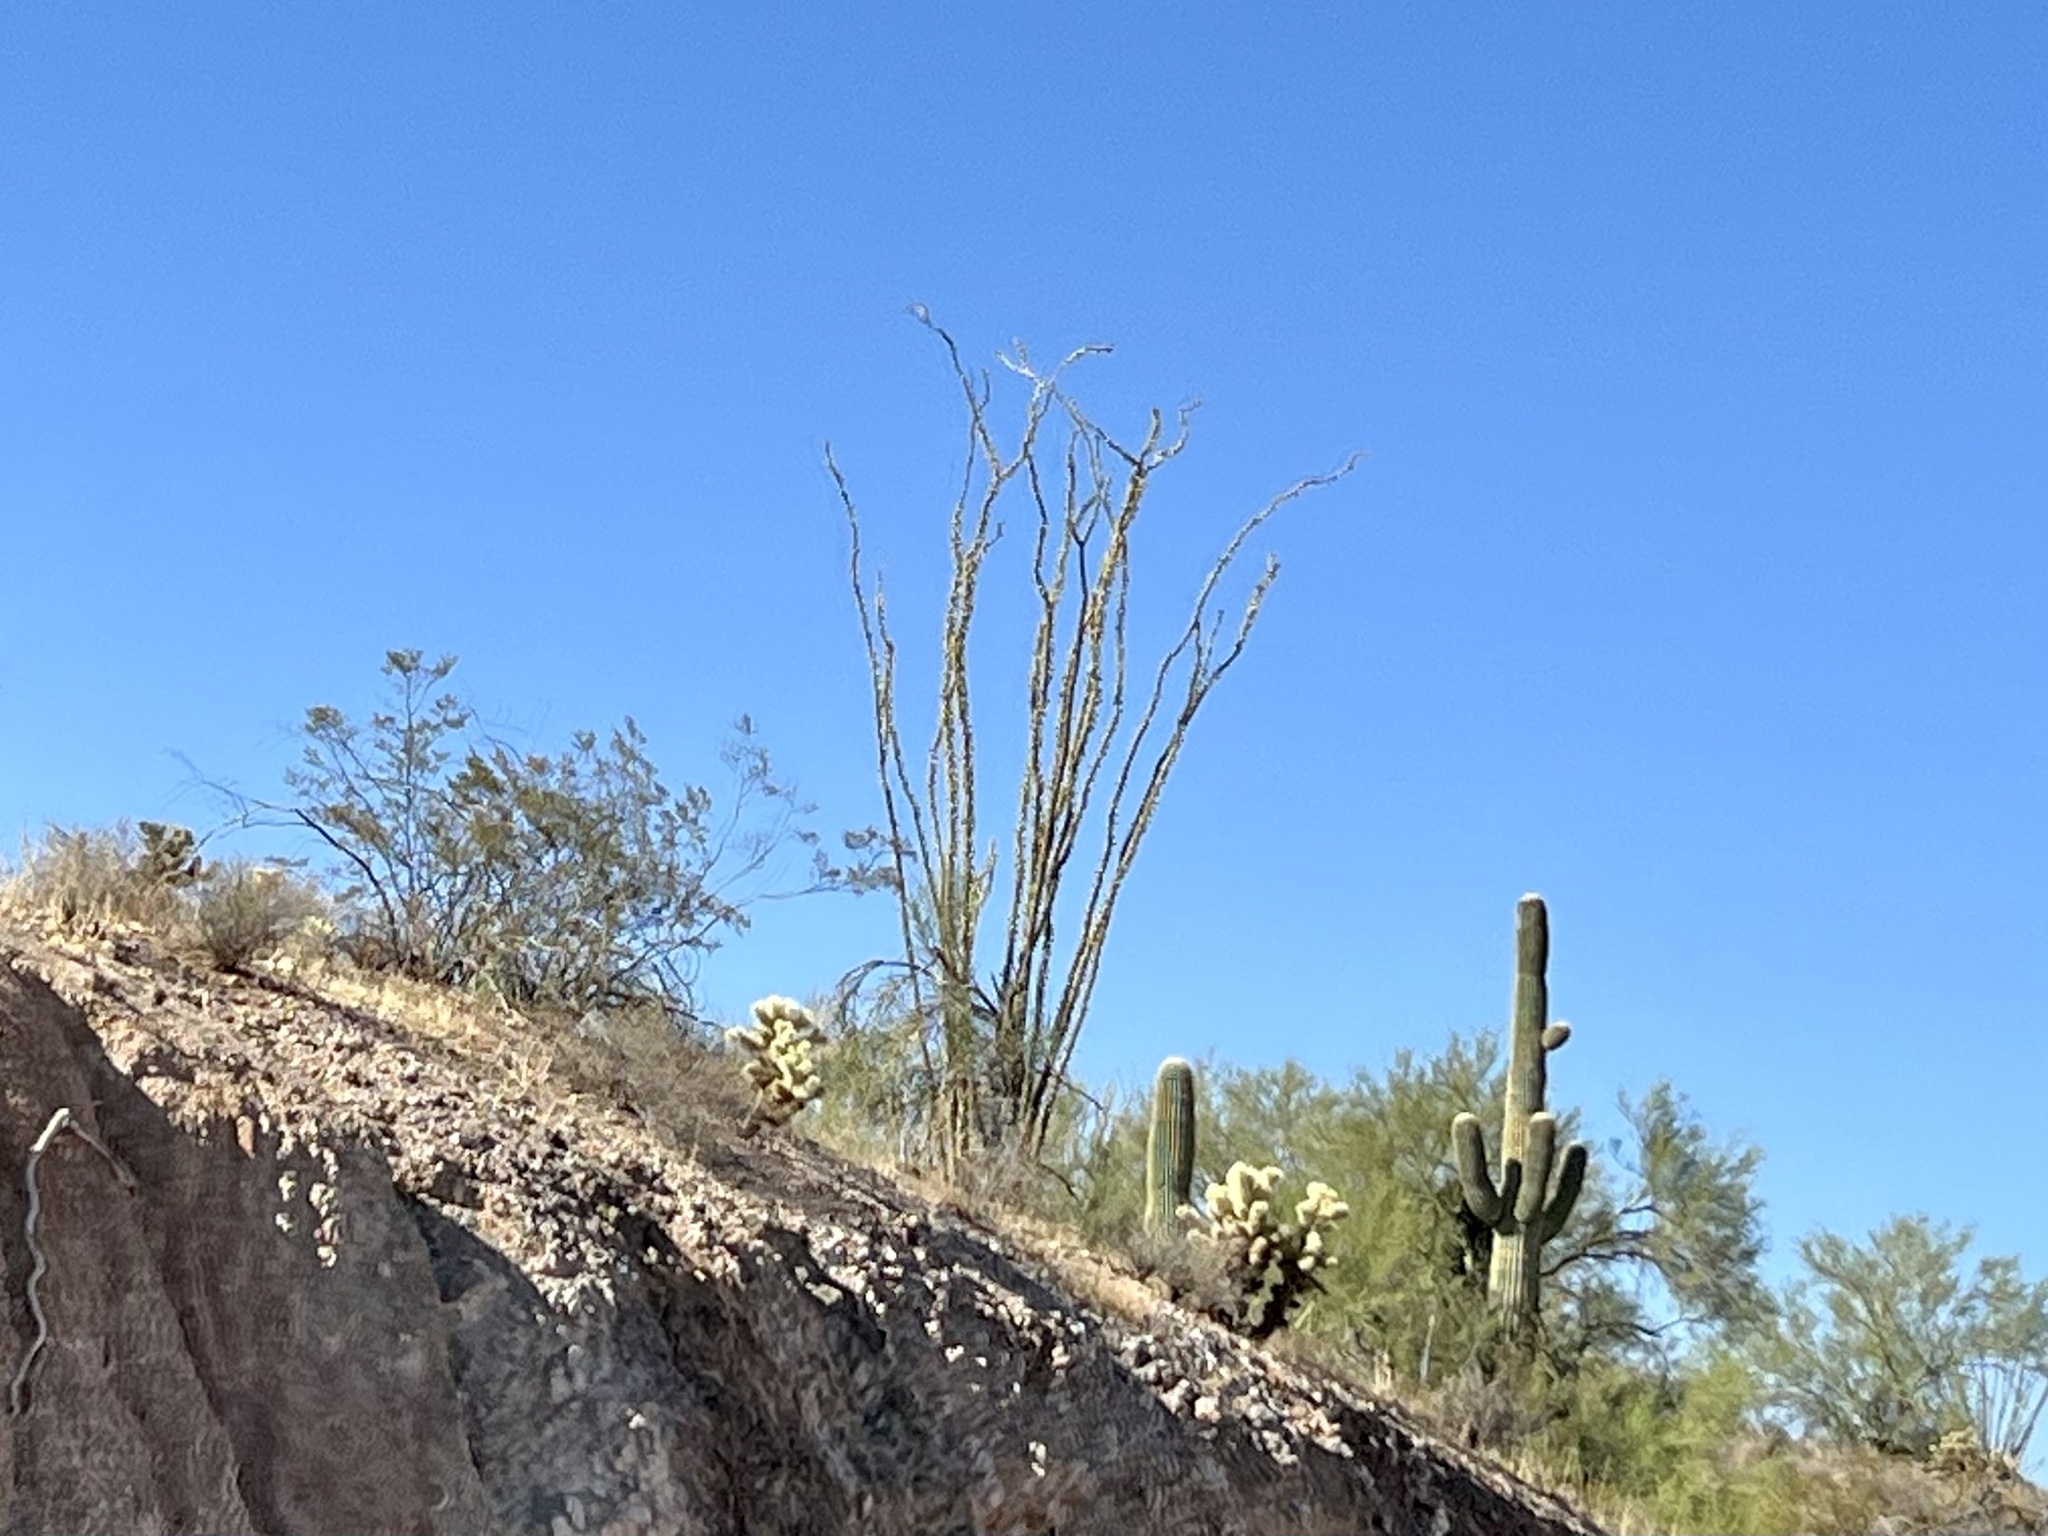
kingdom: Plantae
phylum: Tracheophyta
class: Magnoliopsida
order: Ericales
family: Fouquieriaceae
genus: Fouquieria
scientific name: Fouquieria splendens
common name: Vine-cactus
